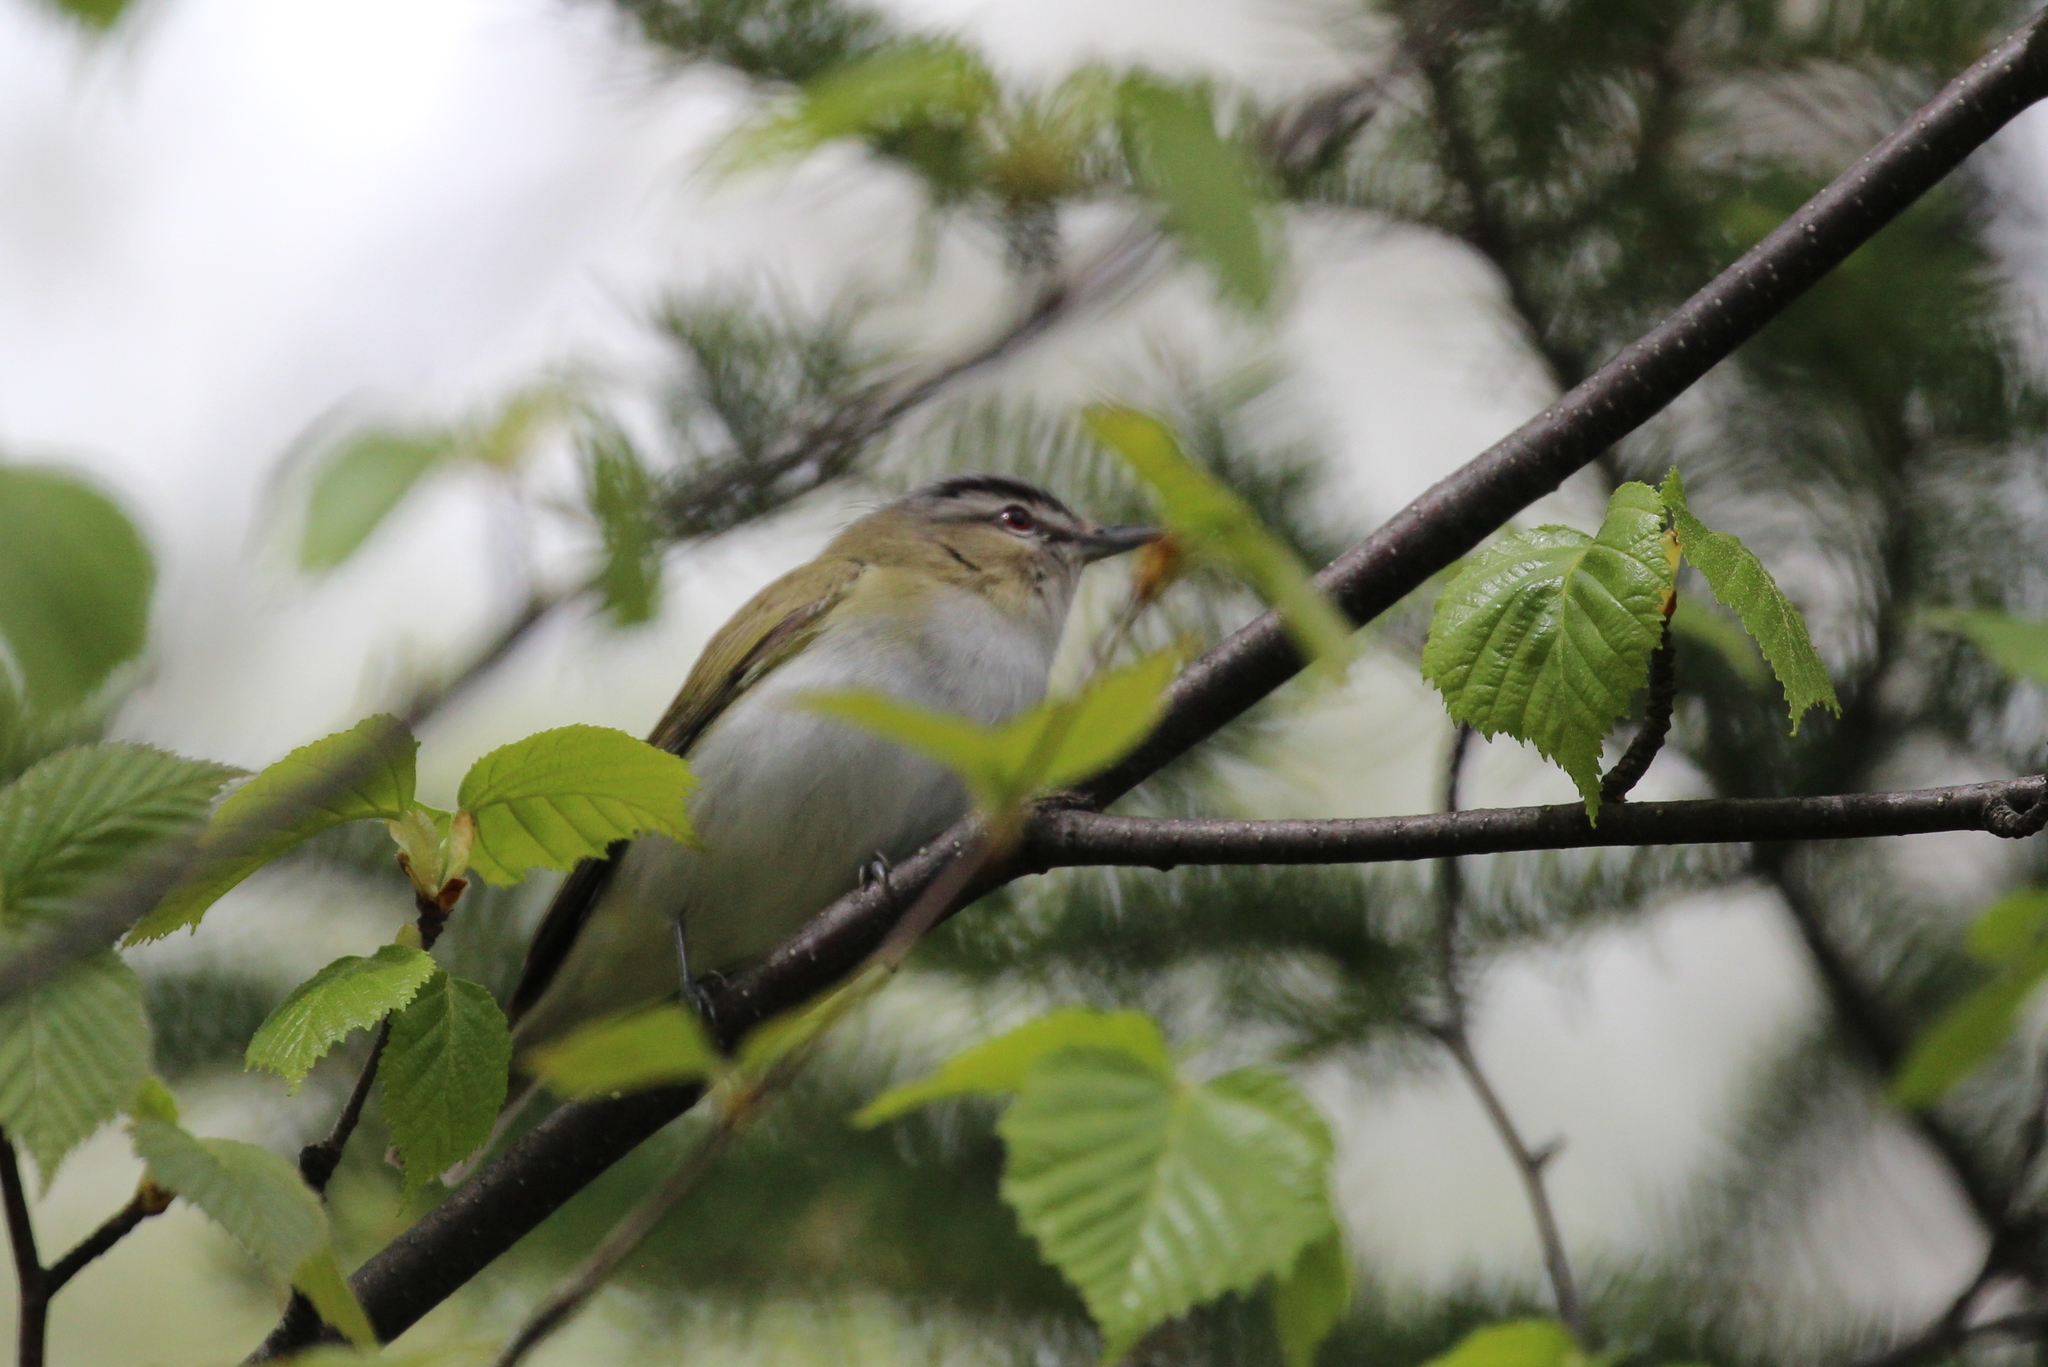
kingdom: Animalia
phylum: Chordata
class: Aves
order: Passeriformes
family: Vireonidae
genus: Vireo
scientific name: Vireo olivaceus
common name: Red-eyed vireo
